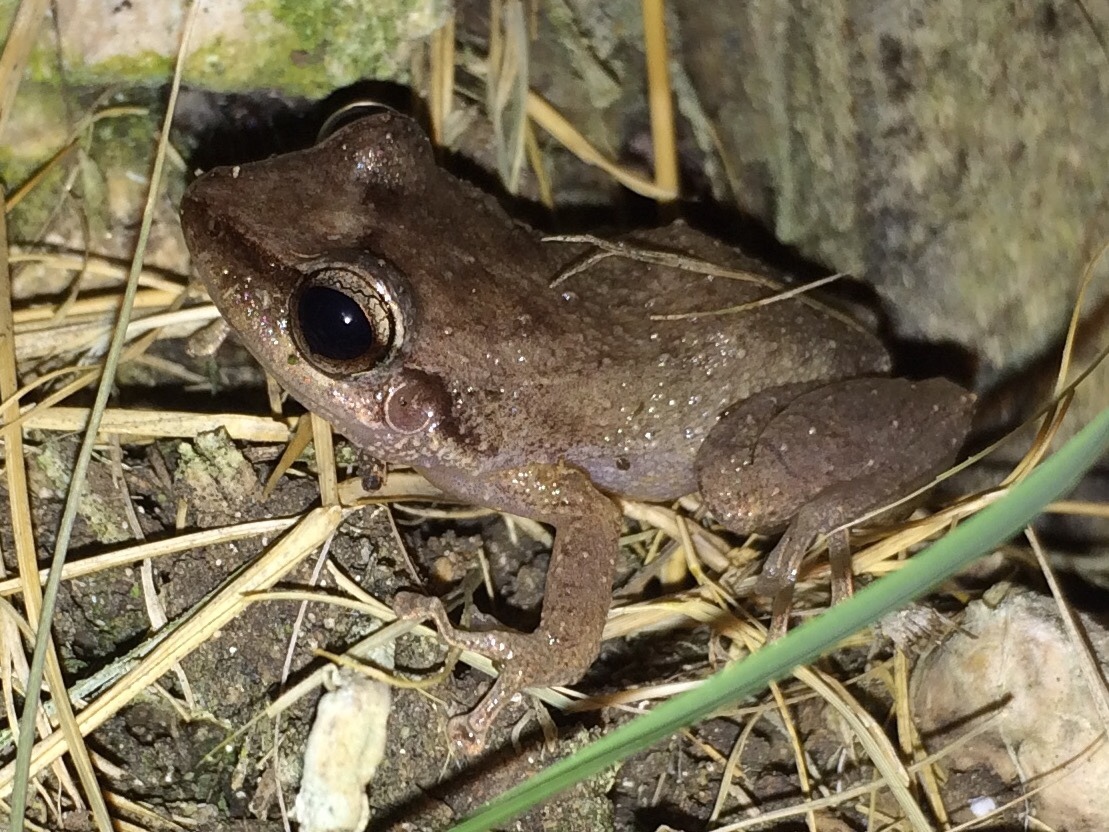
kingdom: Animalia
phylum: Chordata
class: Amphibia
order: Anura
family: Eleutherodactylidae
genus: Eleutherodactylus
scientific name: Eleutherodactylus coqui
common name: Coqui frog
